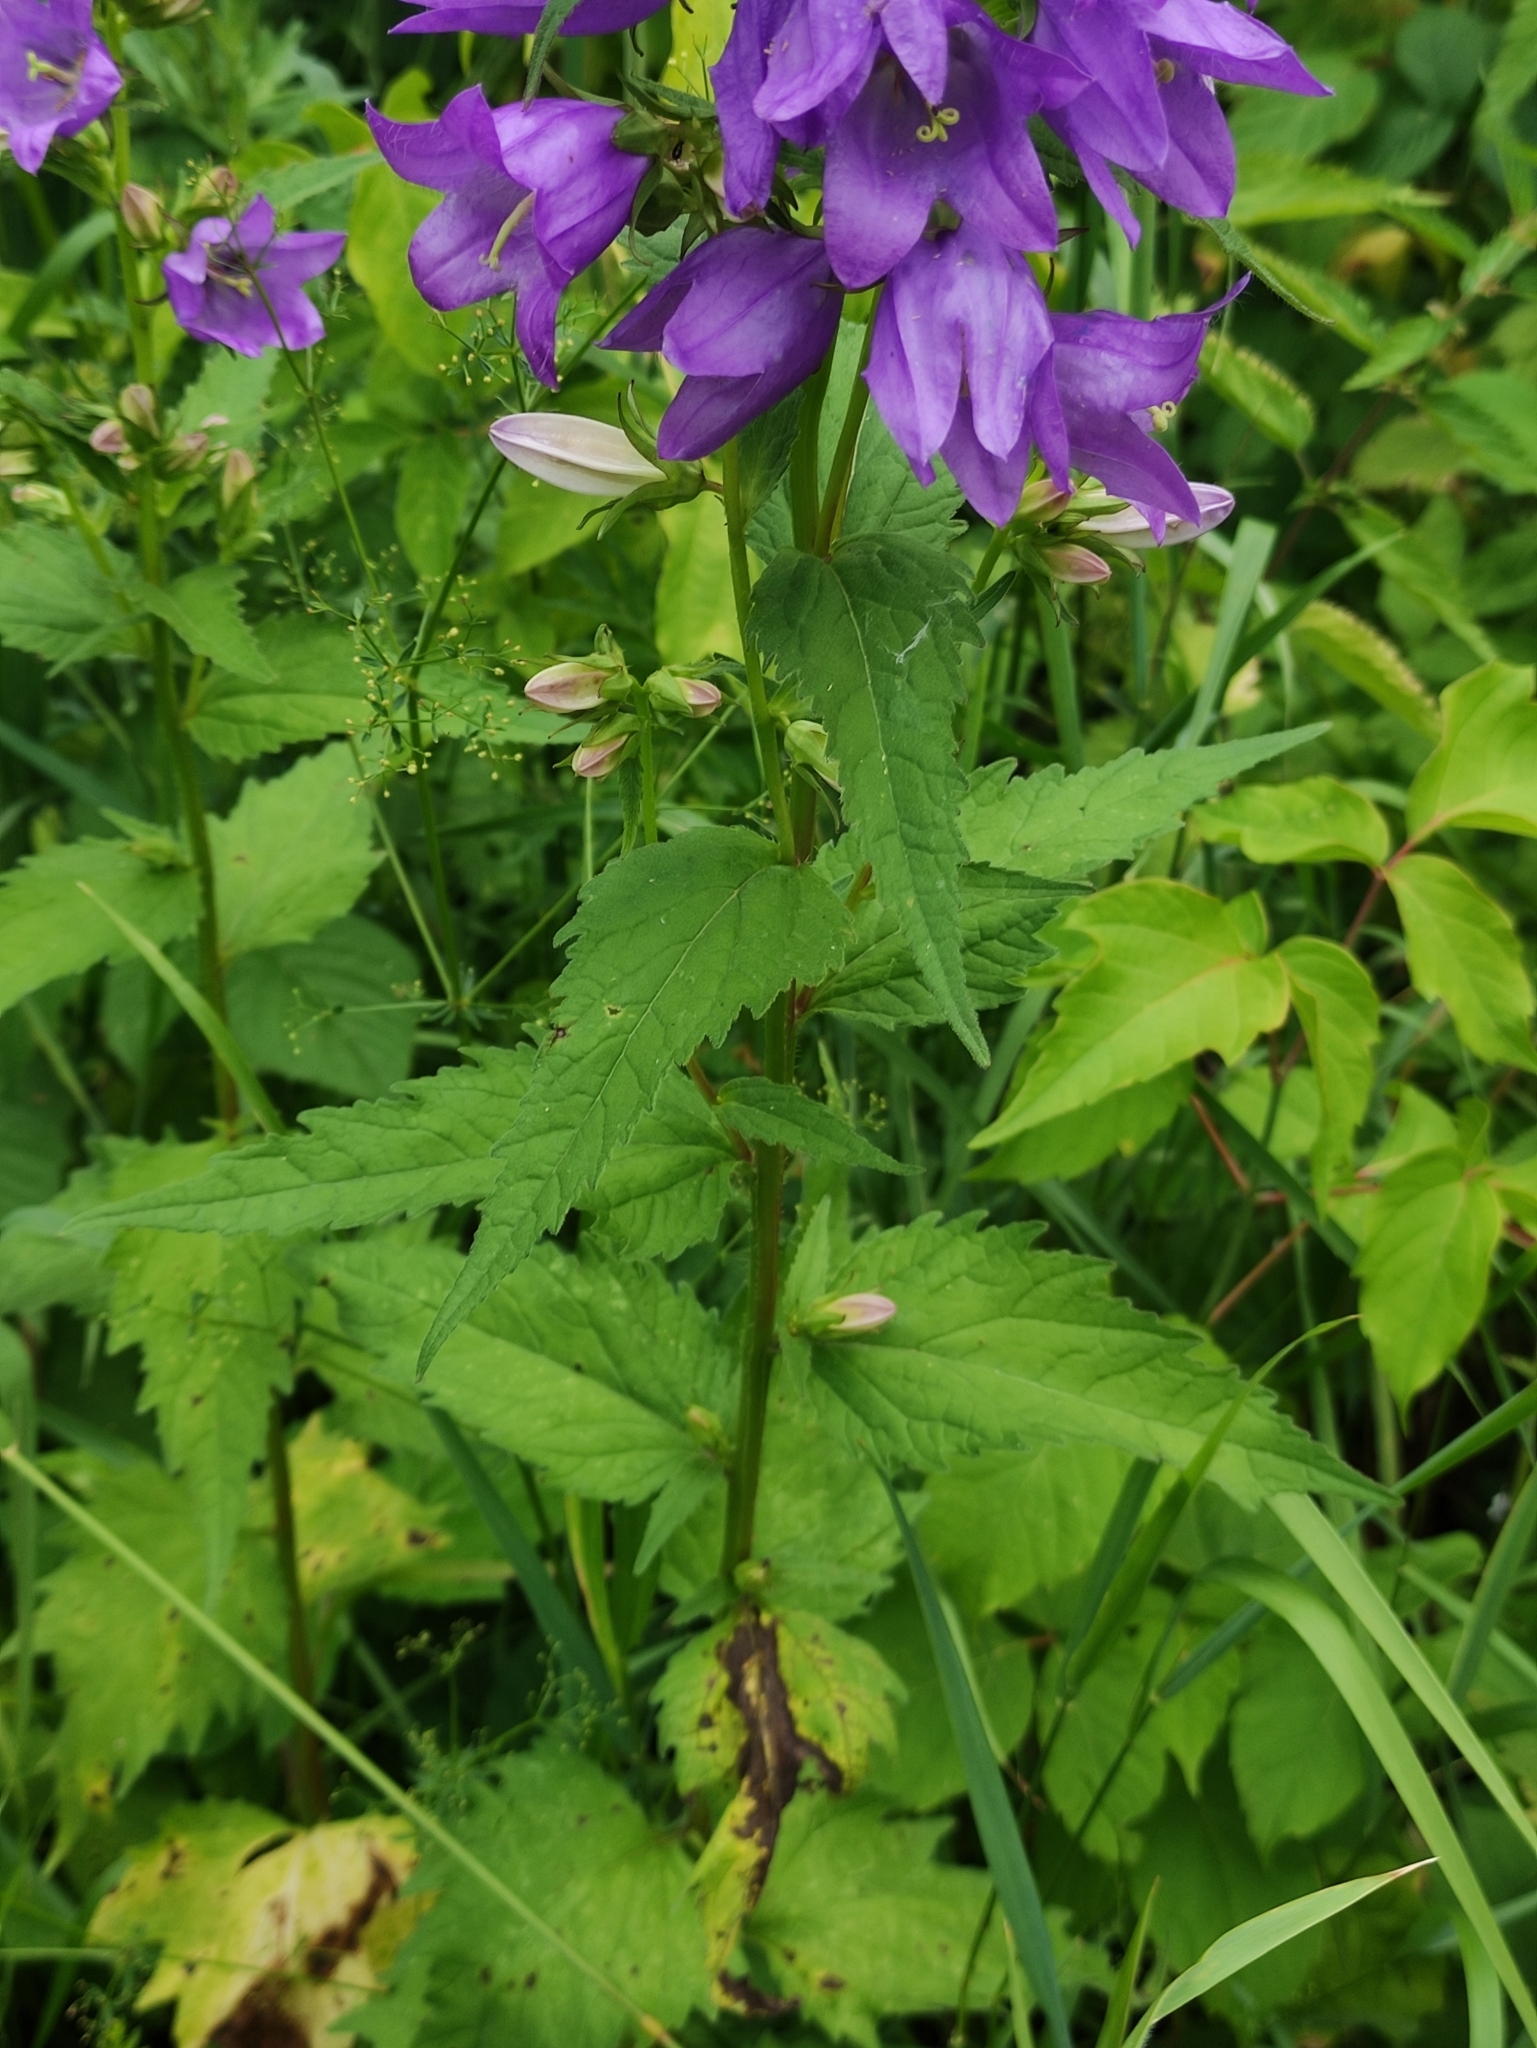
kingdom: Plantae
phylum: Tracheophyta
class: Magnoliopsida
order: Asterales
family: Campanulaceae
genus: Campanula
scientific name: Campanula trachelium
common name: Nettle-leaved bellflower
